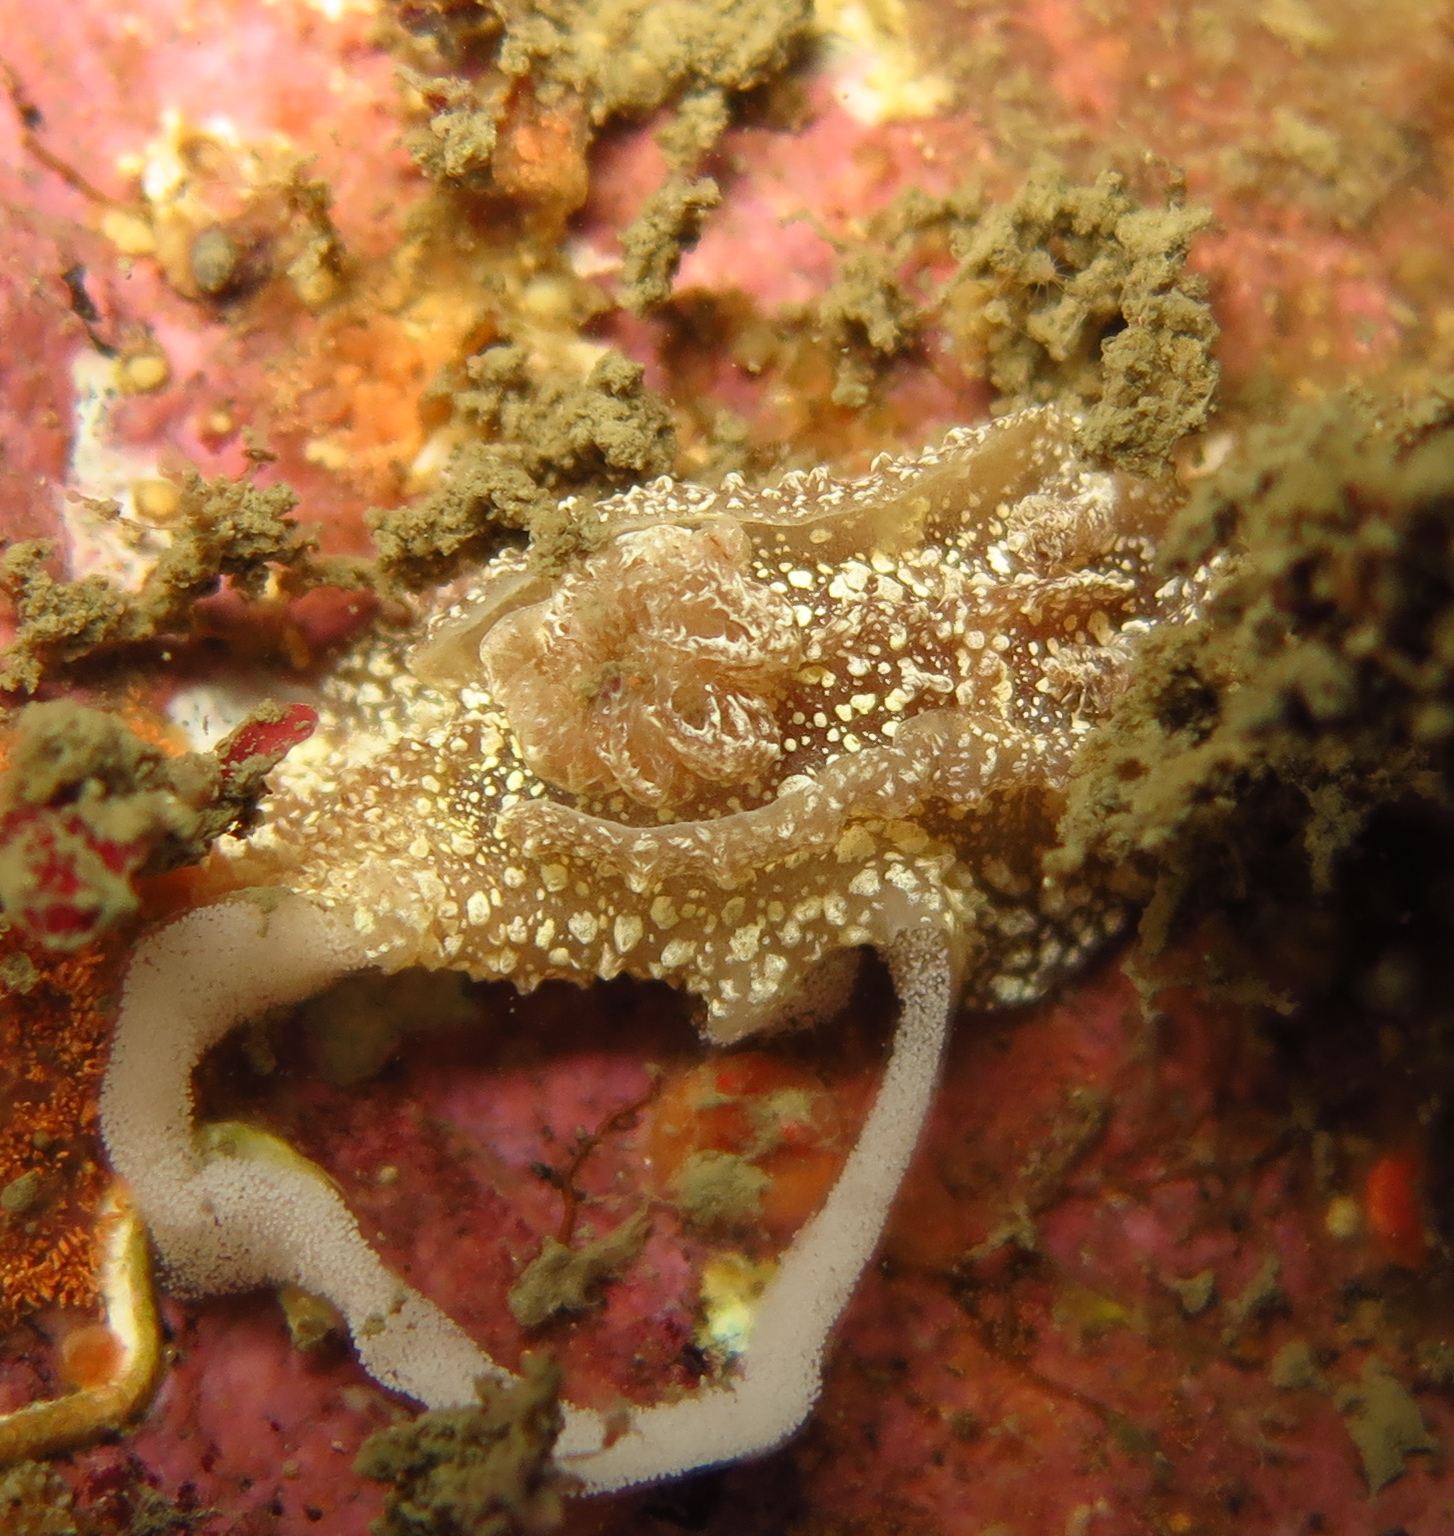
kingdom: Animalia
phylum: Mollusca
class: Gastropoda
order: Nudibranchia
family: Goniodorididae
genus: Pelagella
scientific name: Pelagella castanea
